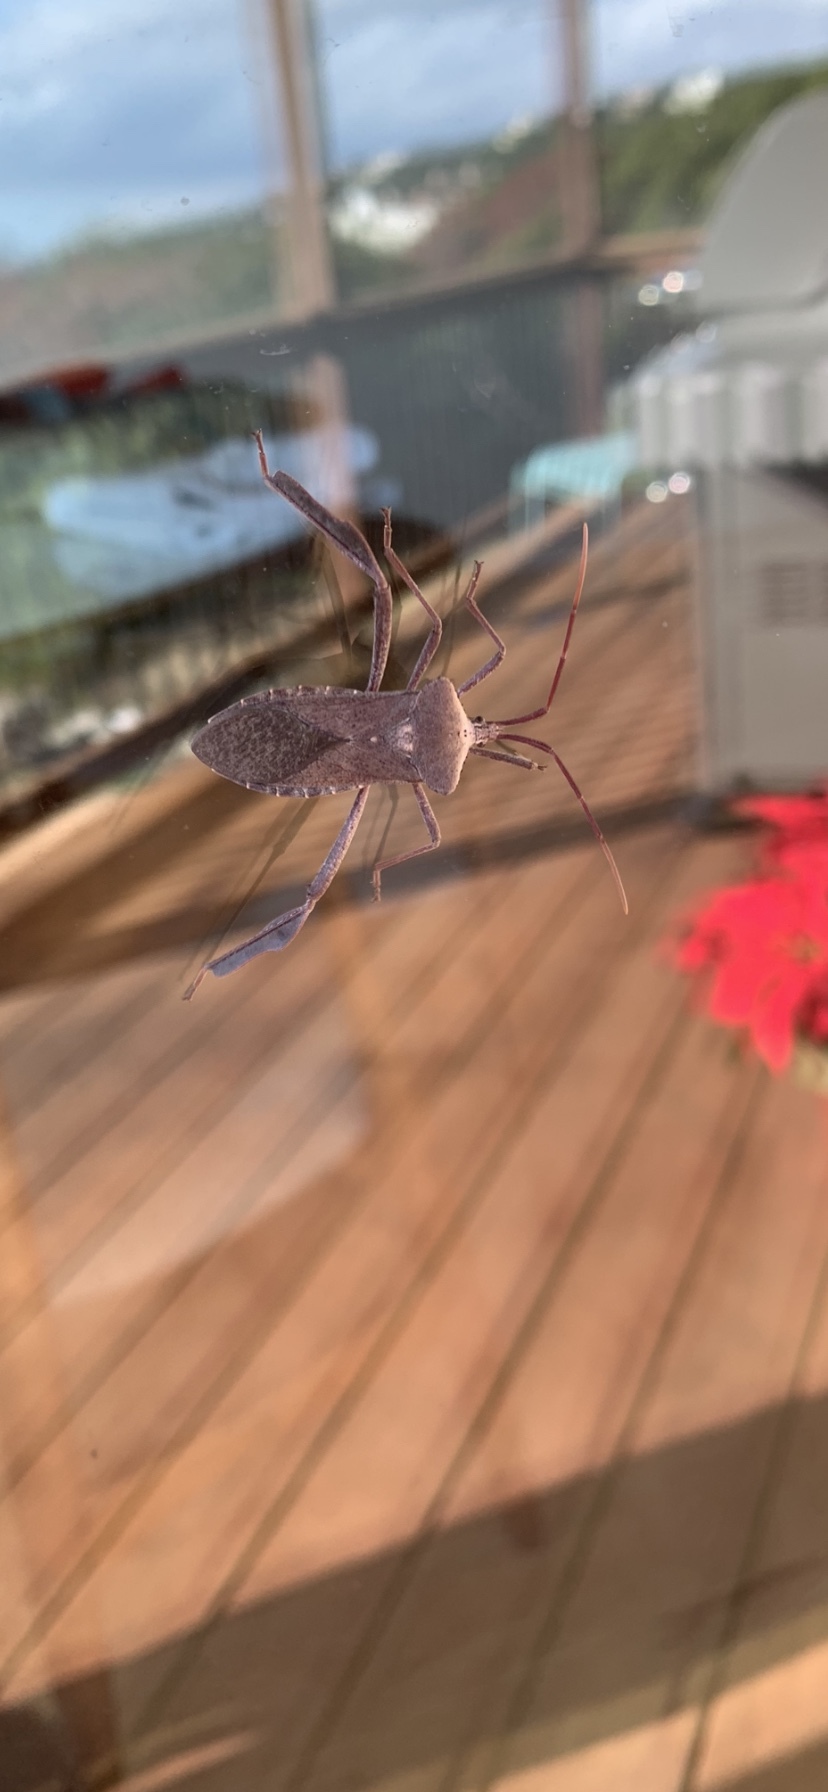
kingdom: Animalia
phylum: Arthropoda
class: Insecta
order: Hemiptera
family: Coreidae
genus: Acanthocephala
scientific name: Acanthocephala declivis
